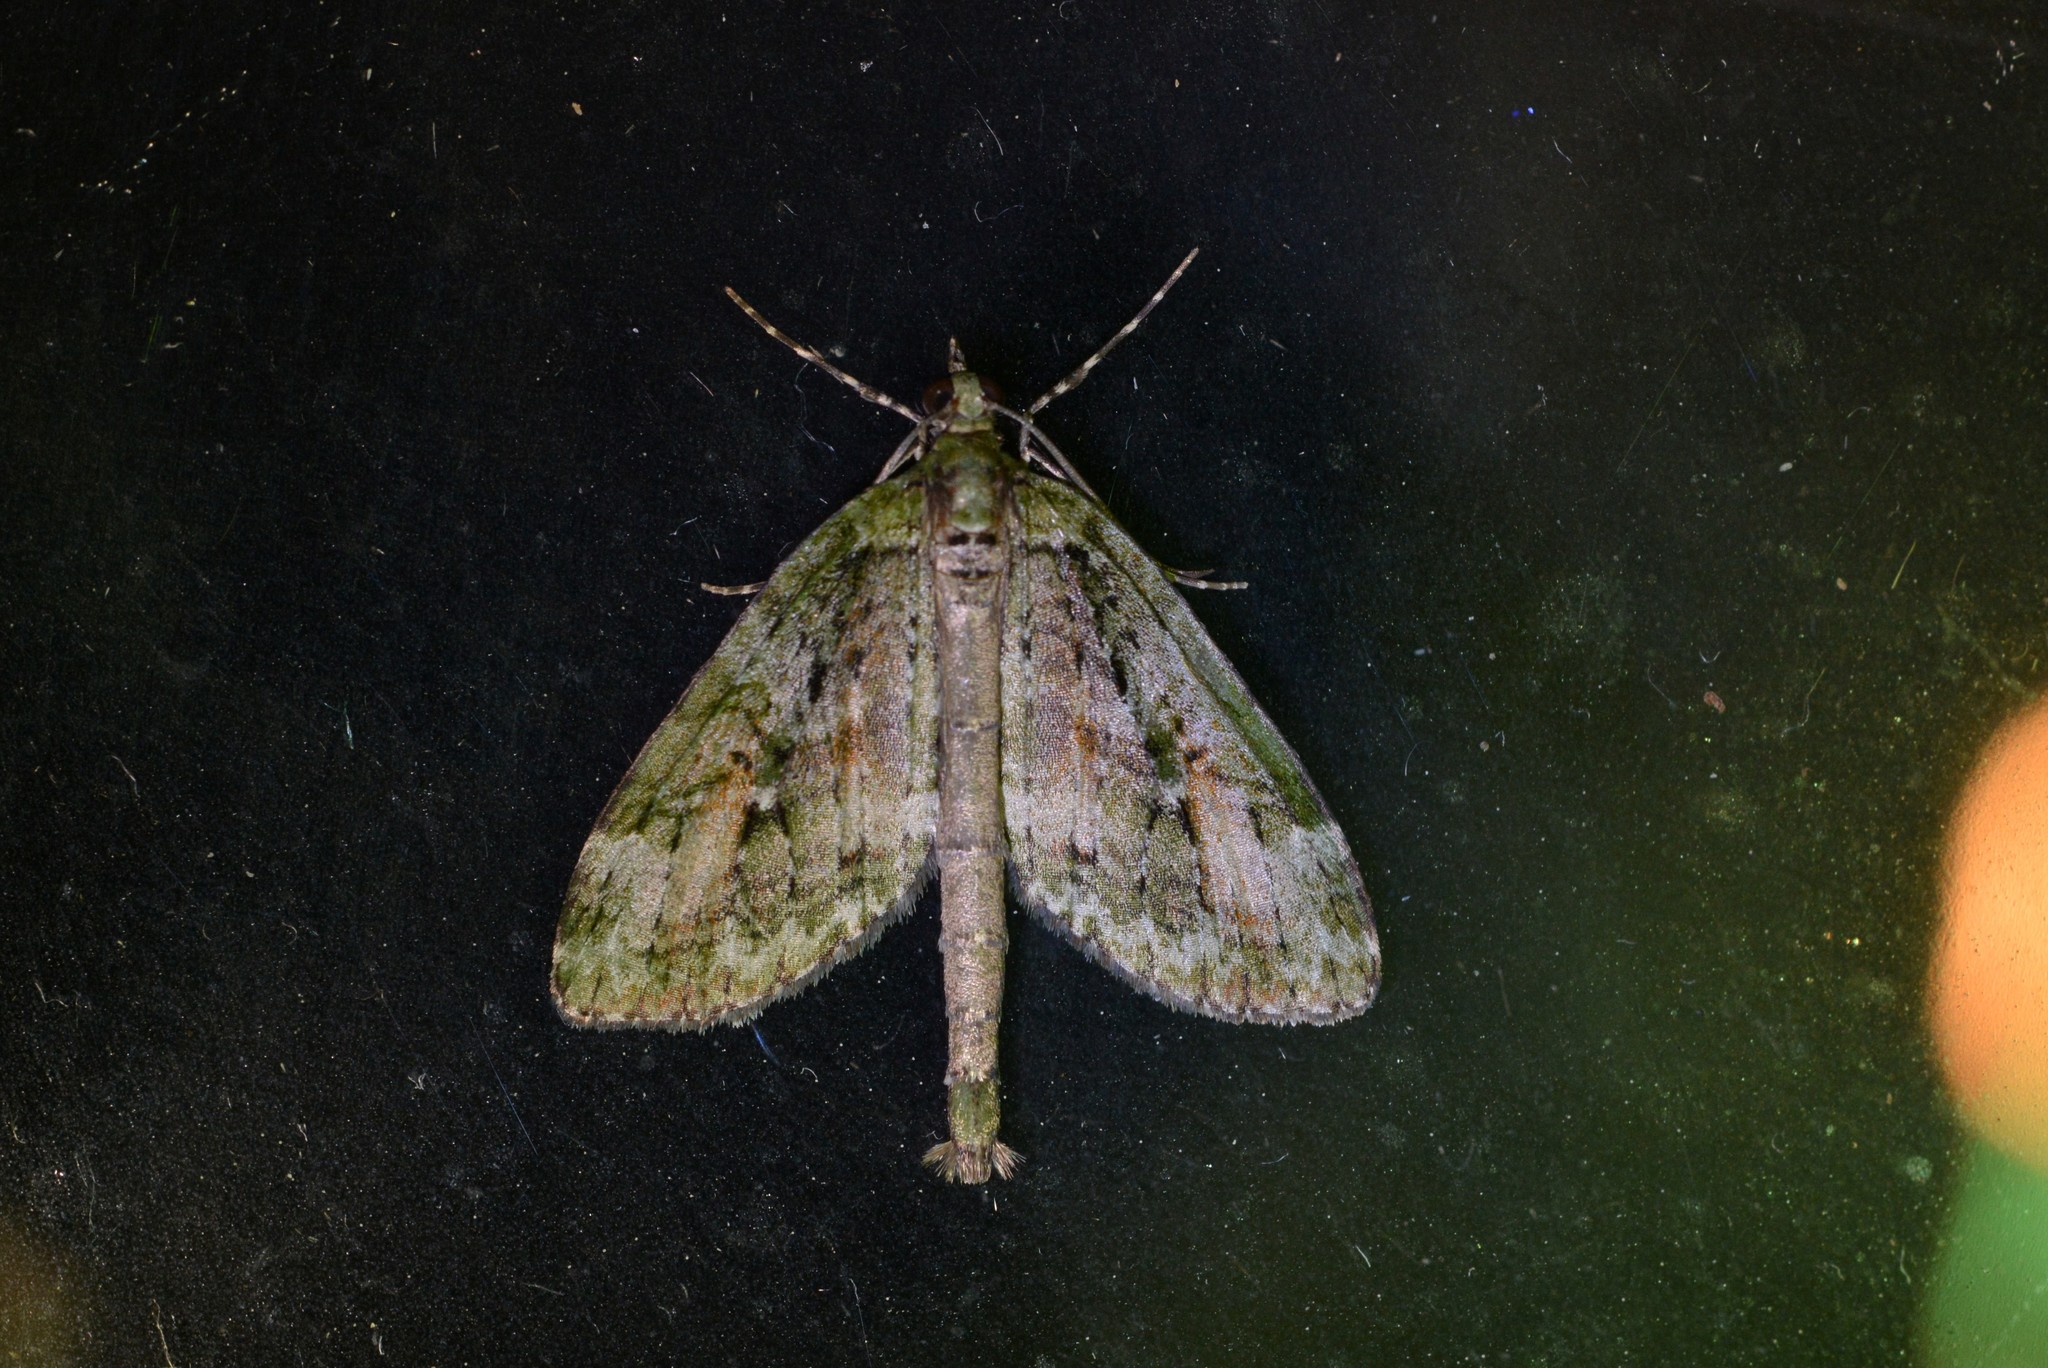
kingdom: Animalia
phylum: Arthropoda
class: Insecta
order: Lepidoptera
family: Geometridae
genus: Tatosoma
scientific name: Tatosoma topea
